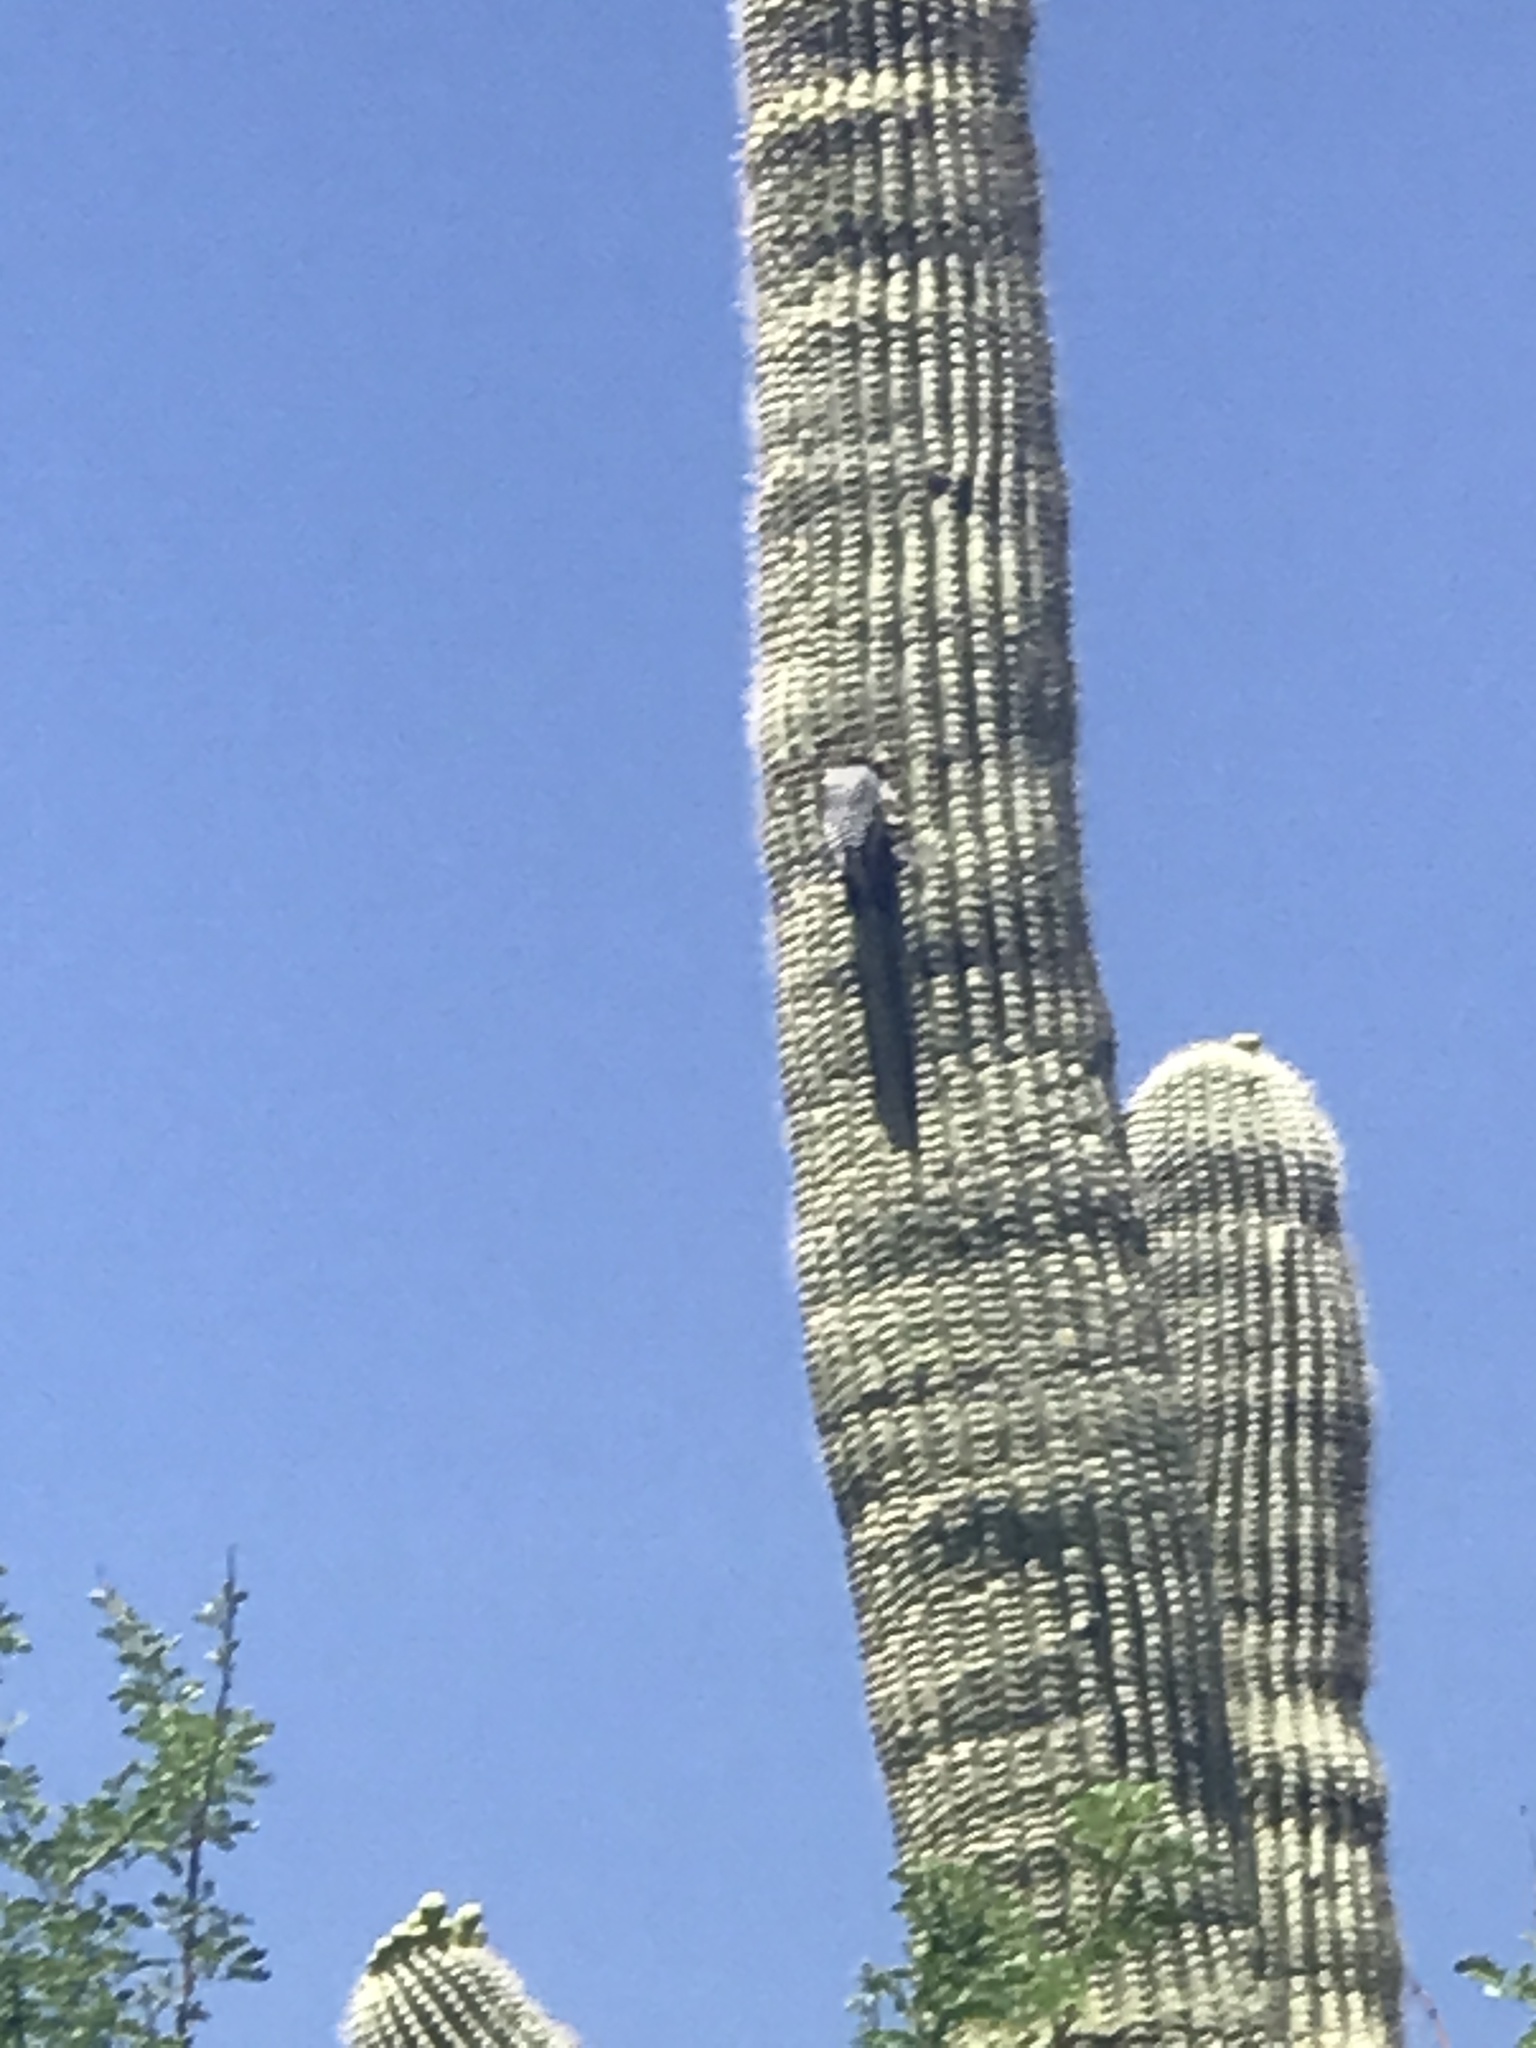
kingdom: Animalia
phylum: Chordata
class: Aves
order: Piciformes
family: Picidae
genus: Melanerpes
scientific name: Melanerpes uropygialis
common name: Gila woodpecker
